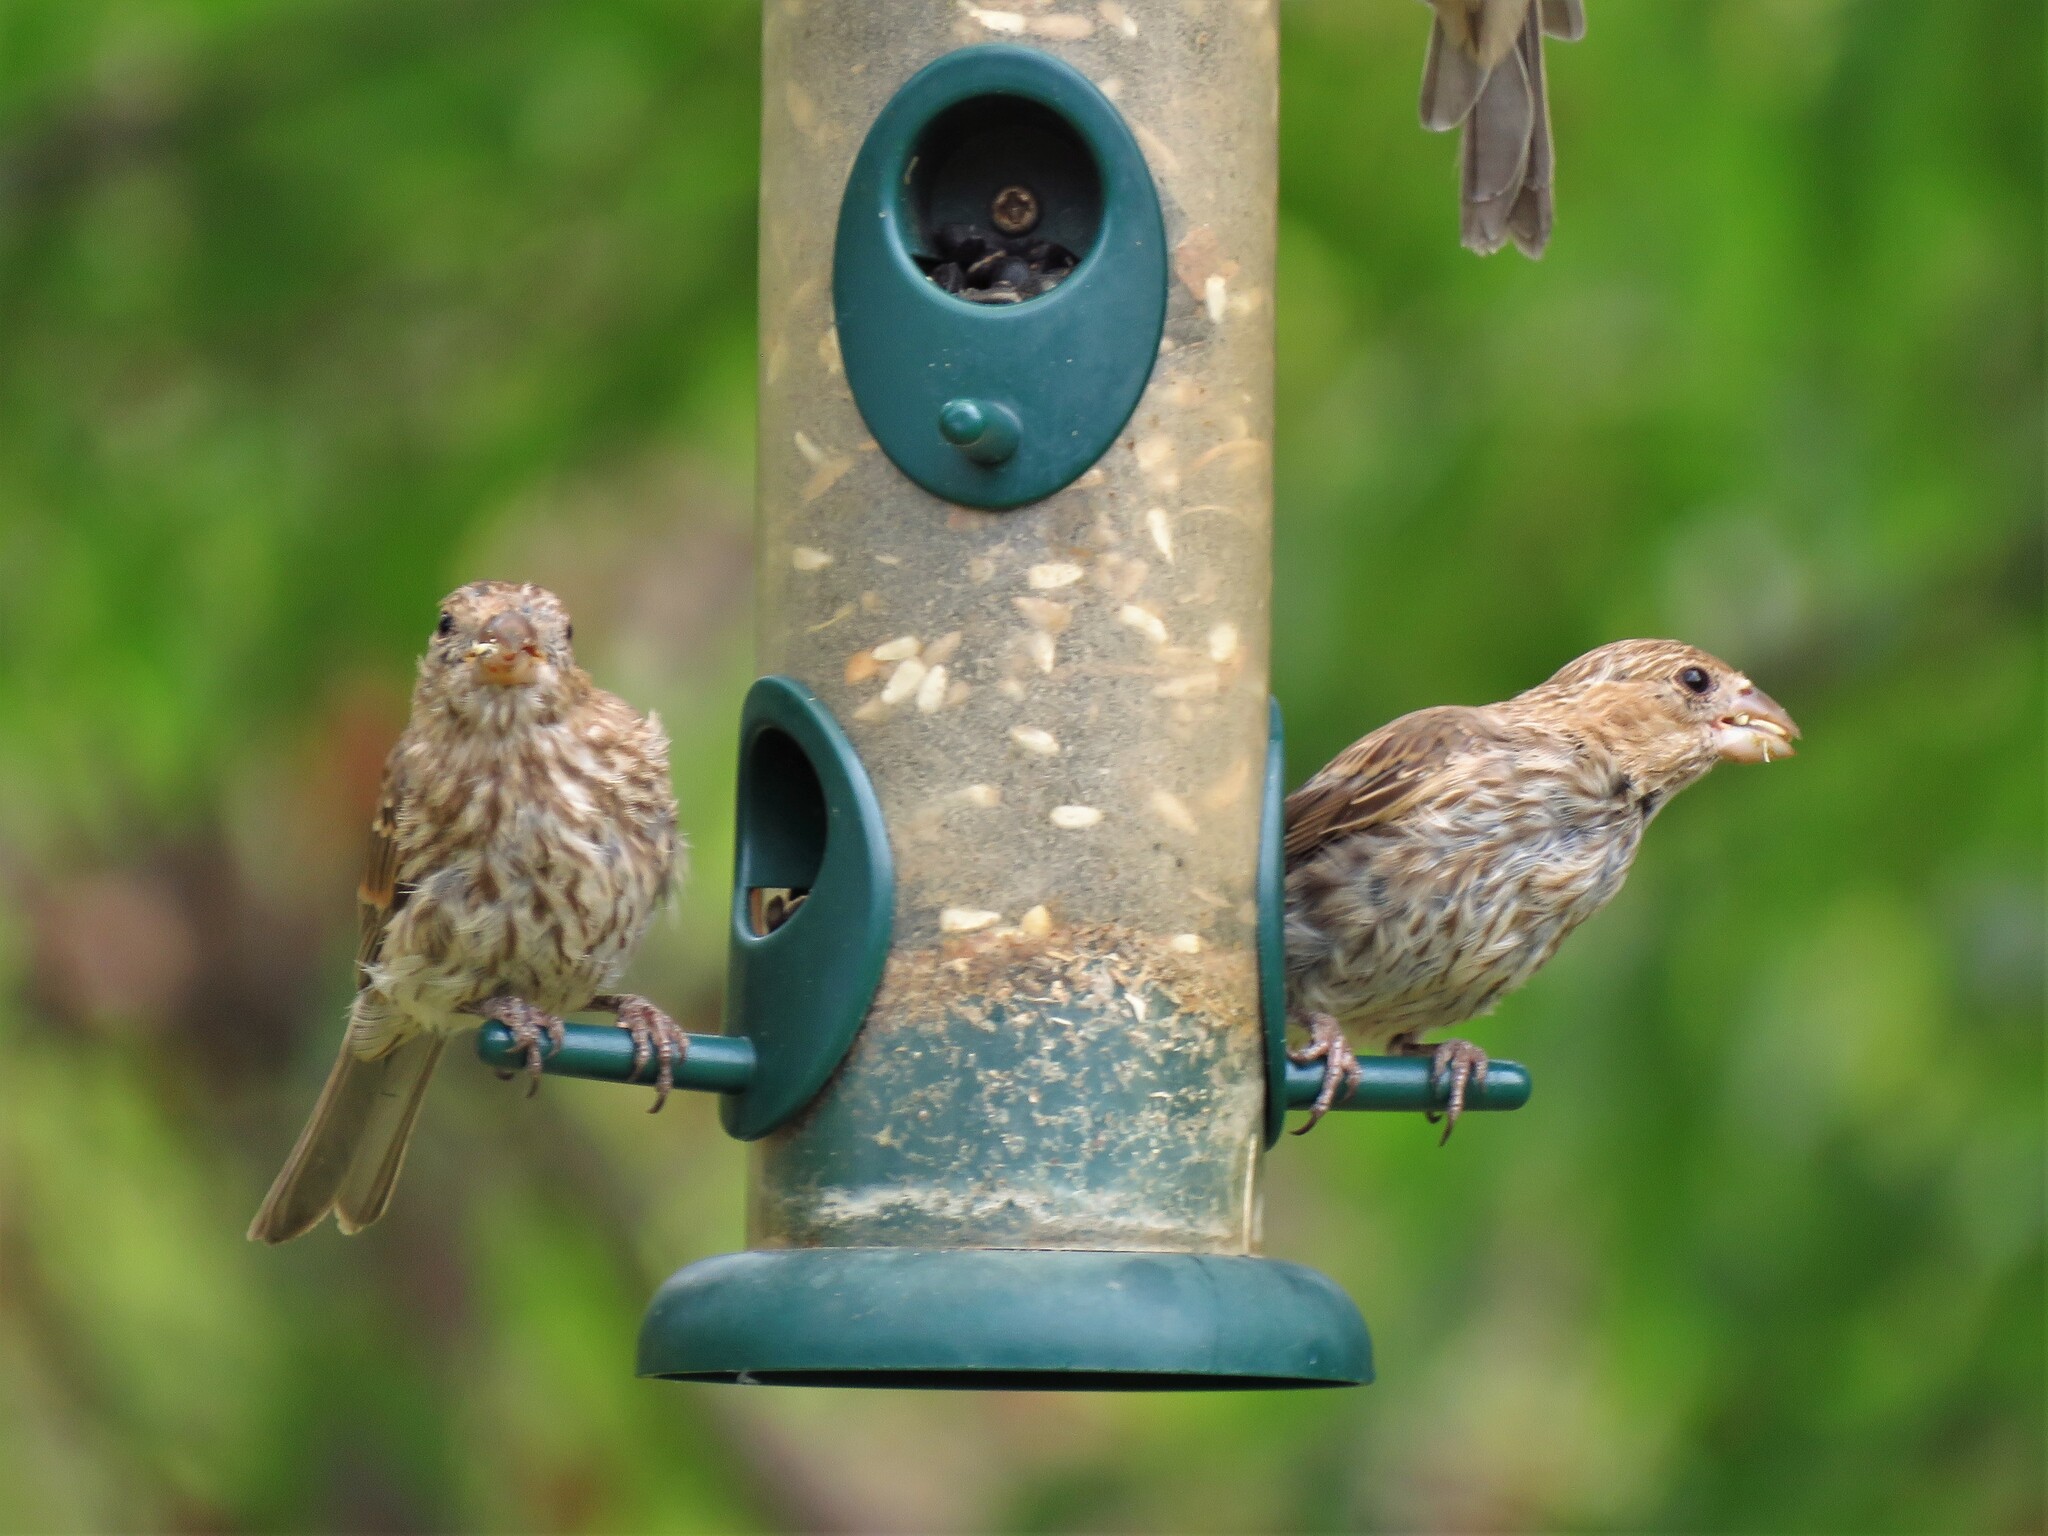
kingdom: Animalia
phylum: Chordata
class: Aves
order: Passeriformes
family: Fringillidae
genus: Haemorhous
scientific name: Haemorhous mexicanus
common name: House finch
